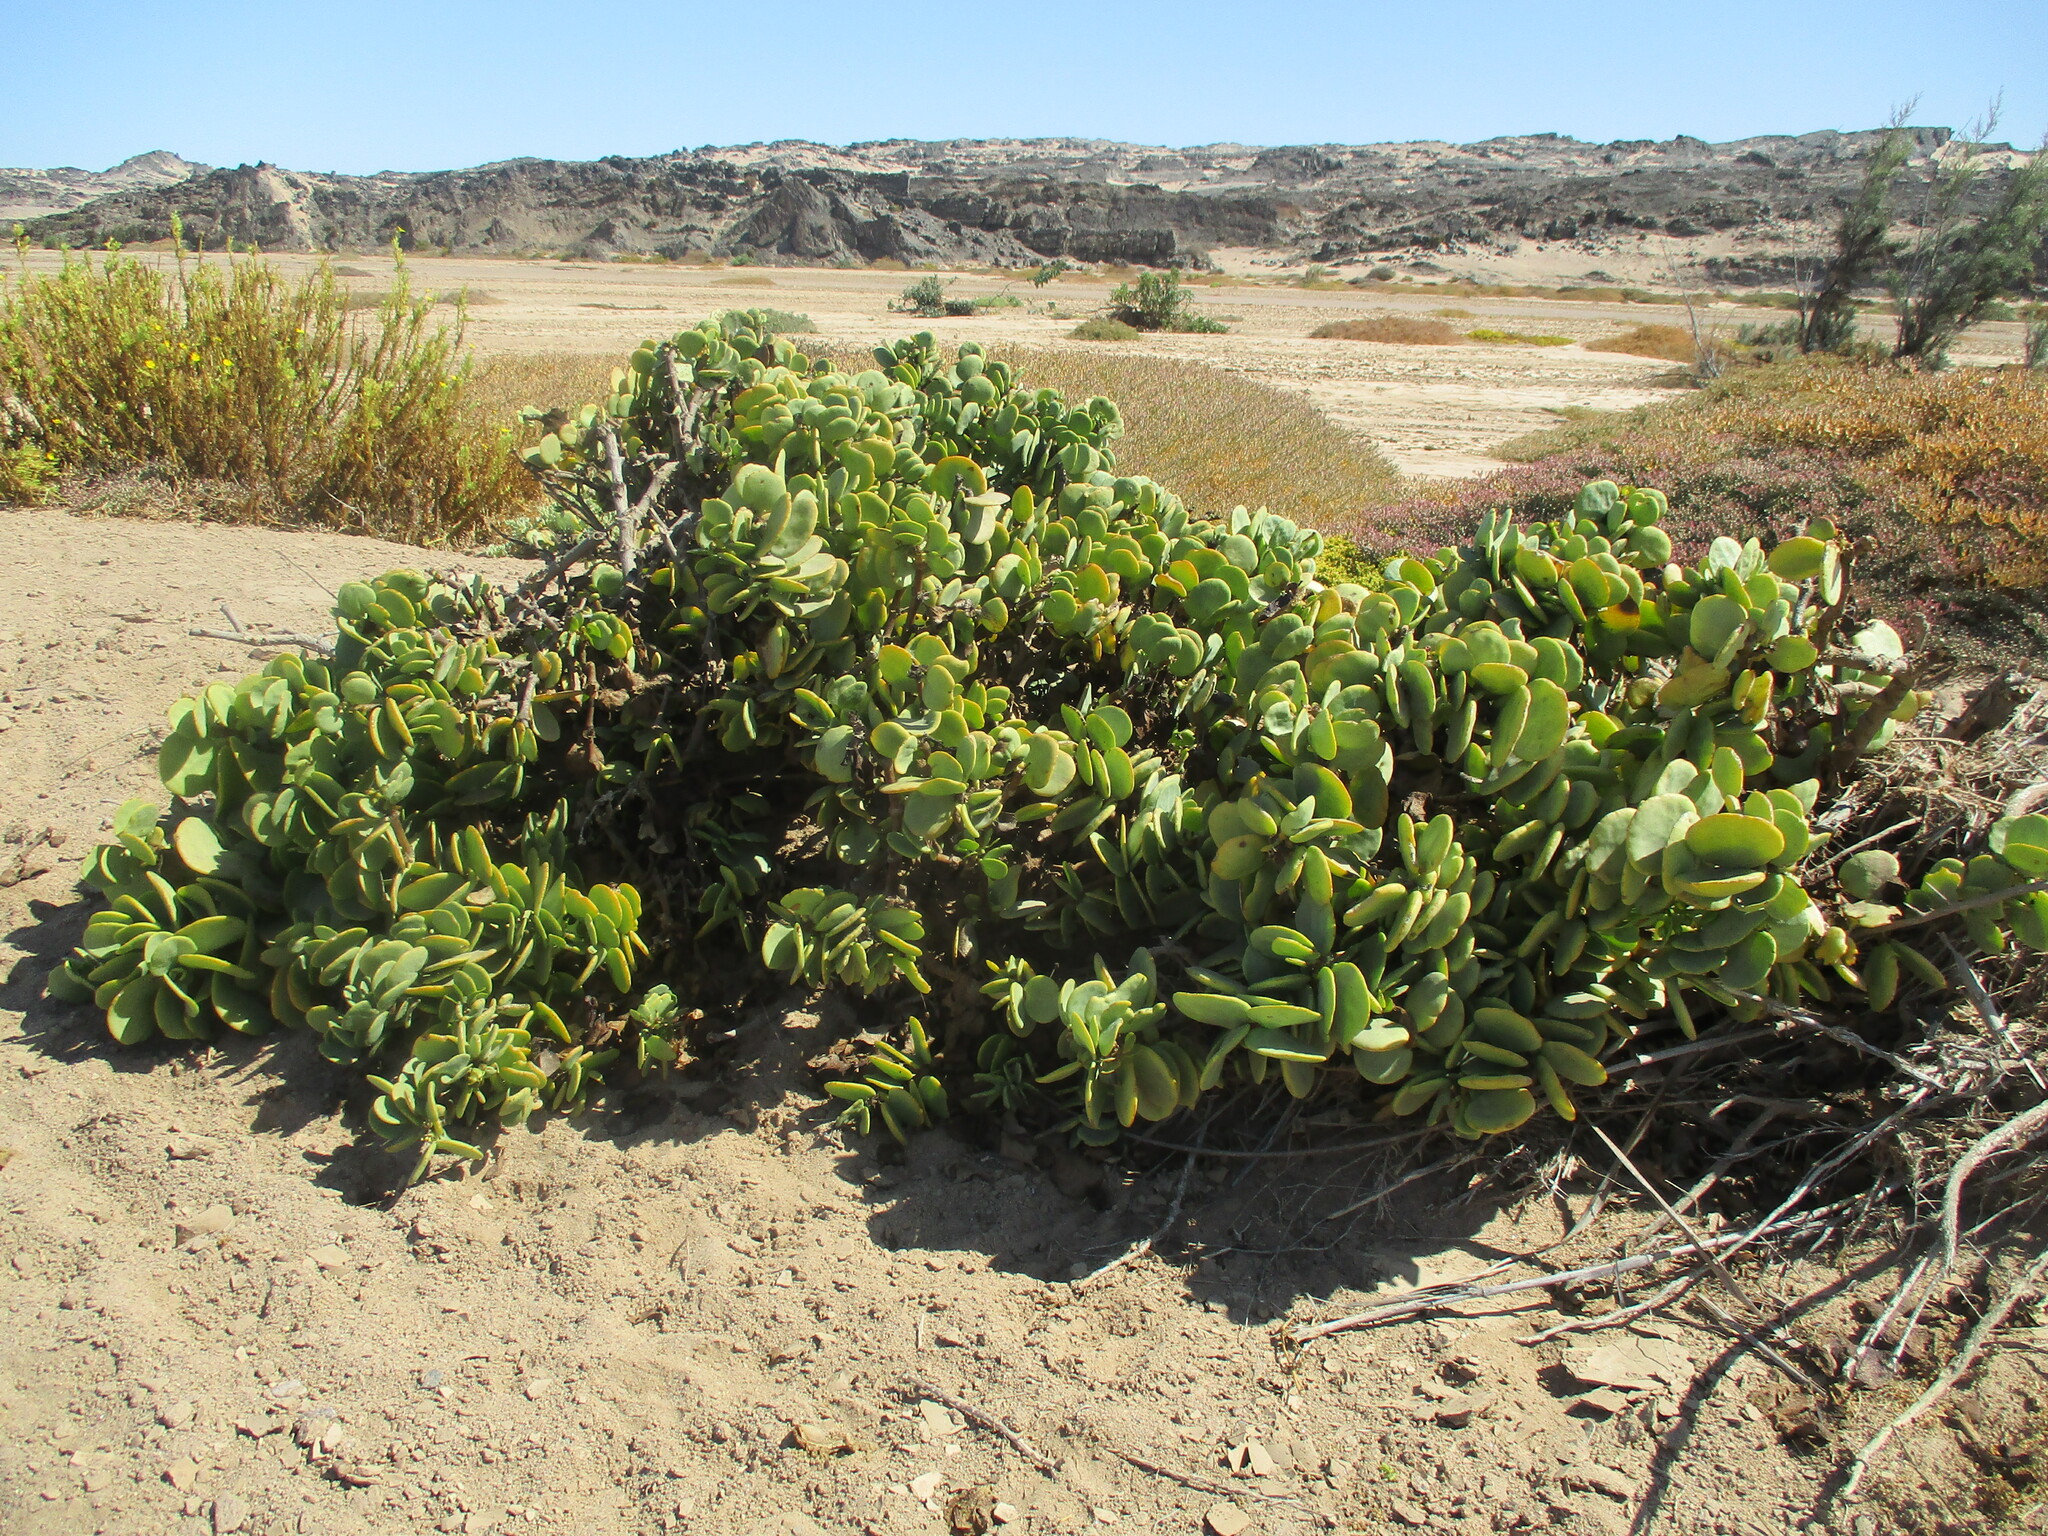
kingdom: Plantae
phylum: Tracheophyta
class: Magnoliopsida
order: Zygophyllales
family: Zygophyllaceae
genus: Tetraena
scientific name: Tetraena stapfii
